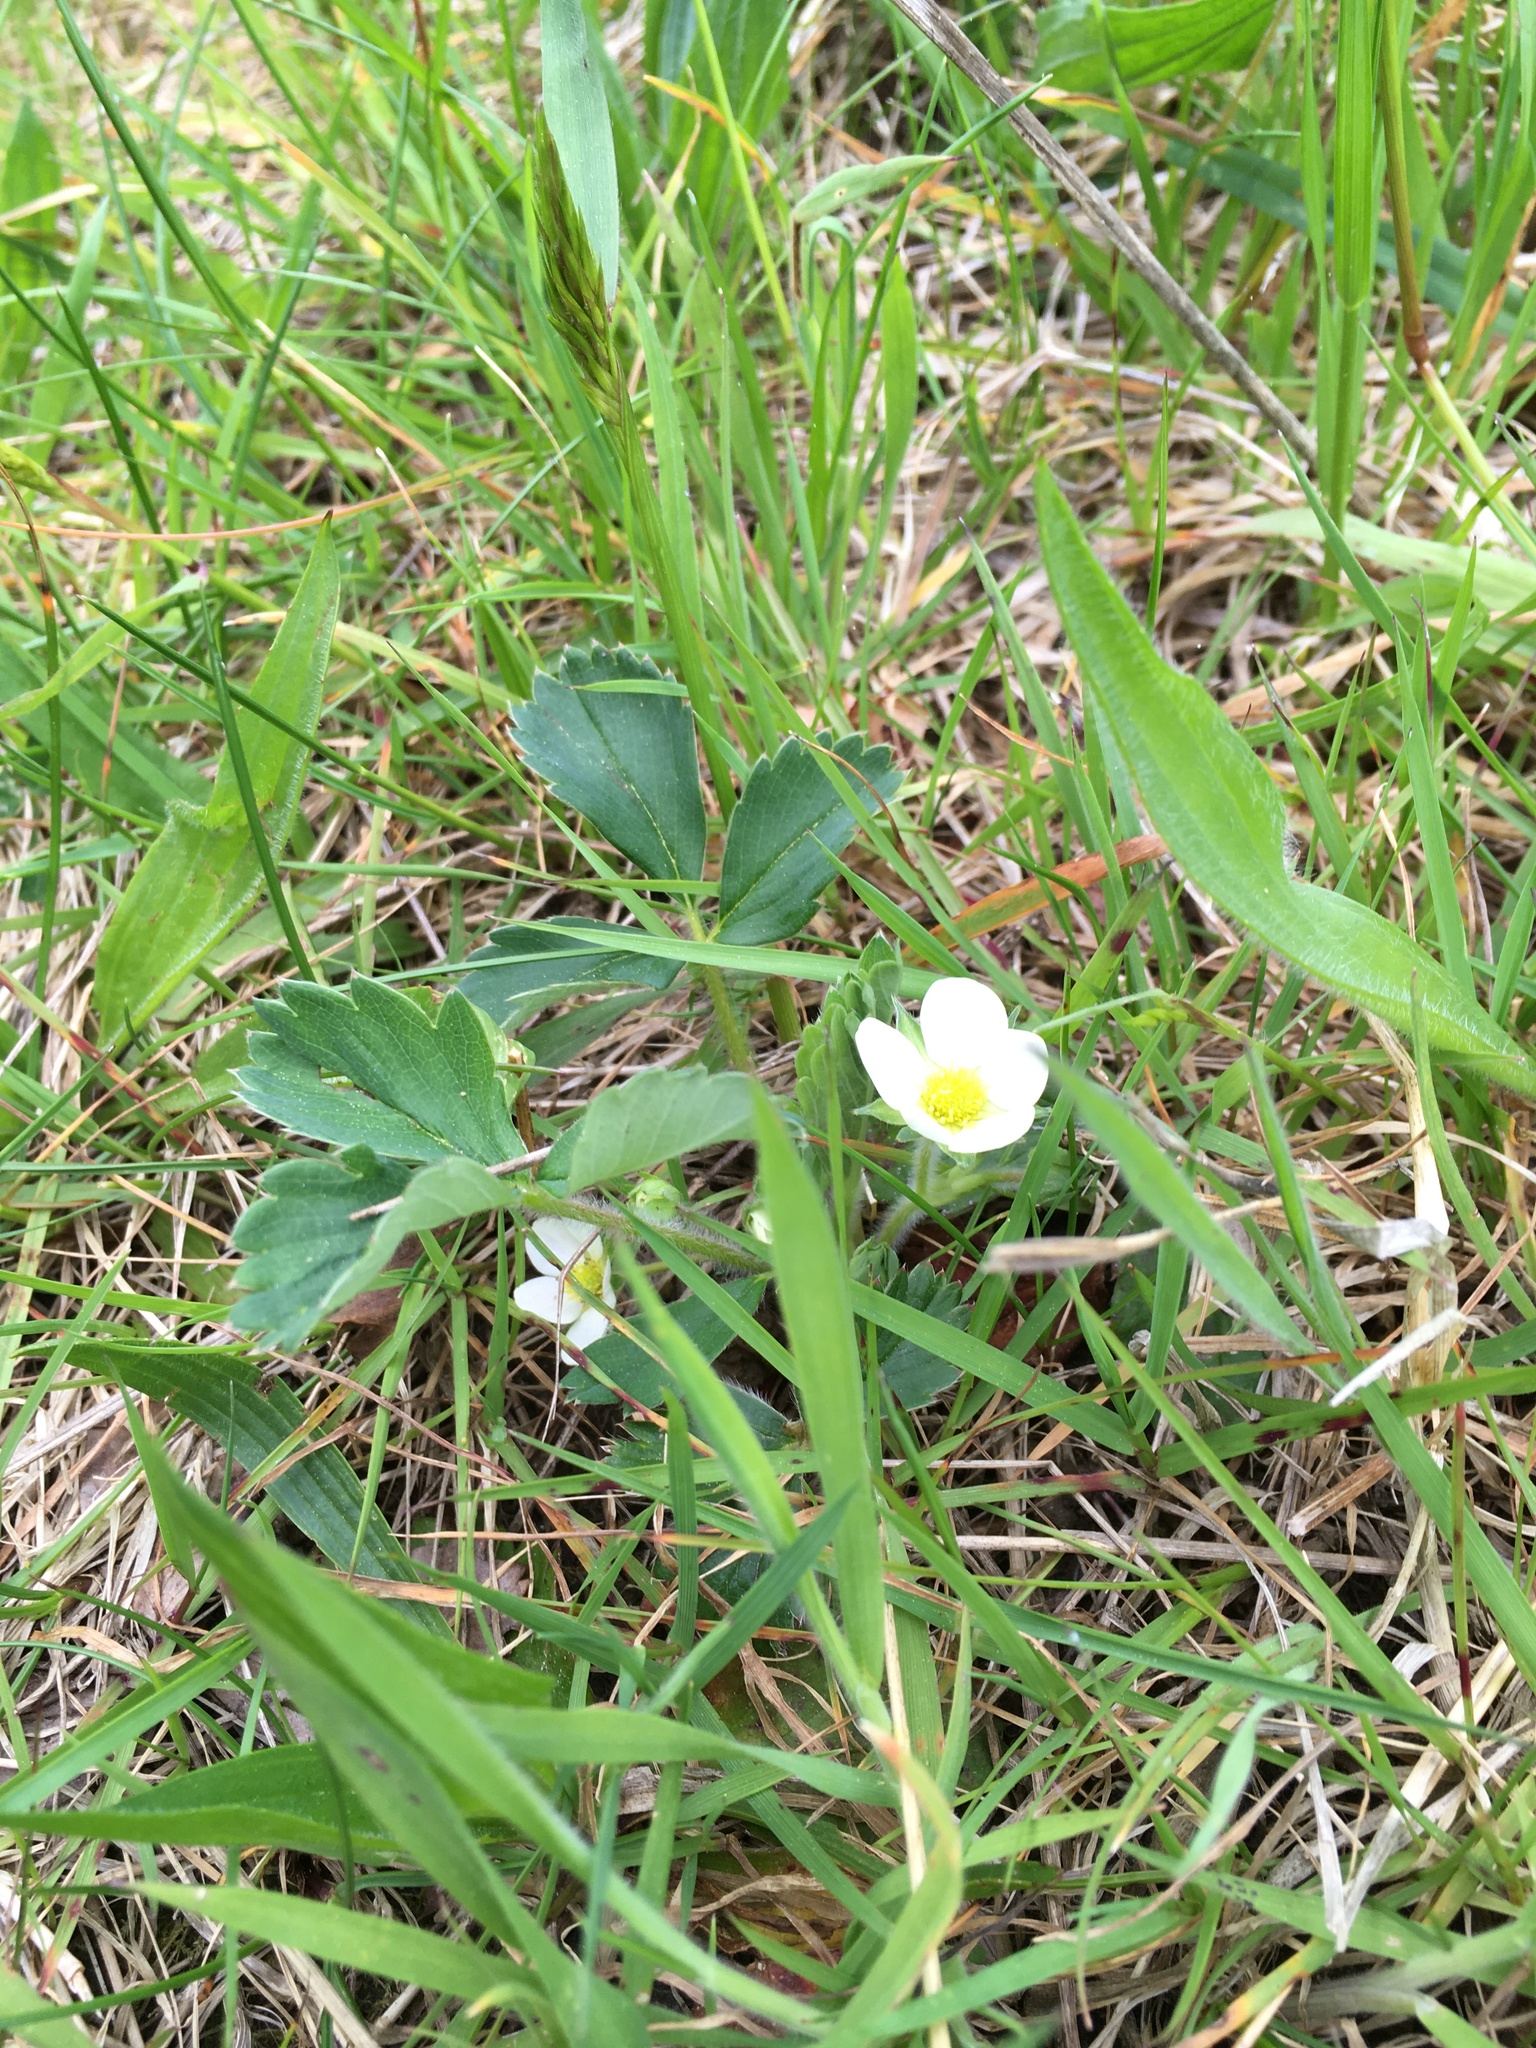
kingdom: Plantae
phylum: Tracheophyta
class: Magnoliopsida
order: Rosales
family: Rosaceae
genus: Fragaria
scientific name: Fragaria virginiana
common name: Thickleaved wild strawberry
